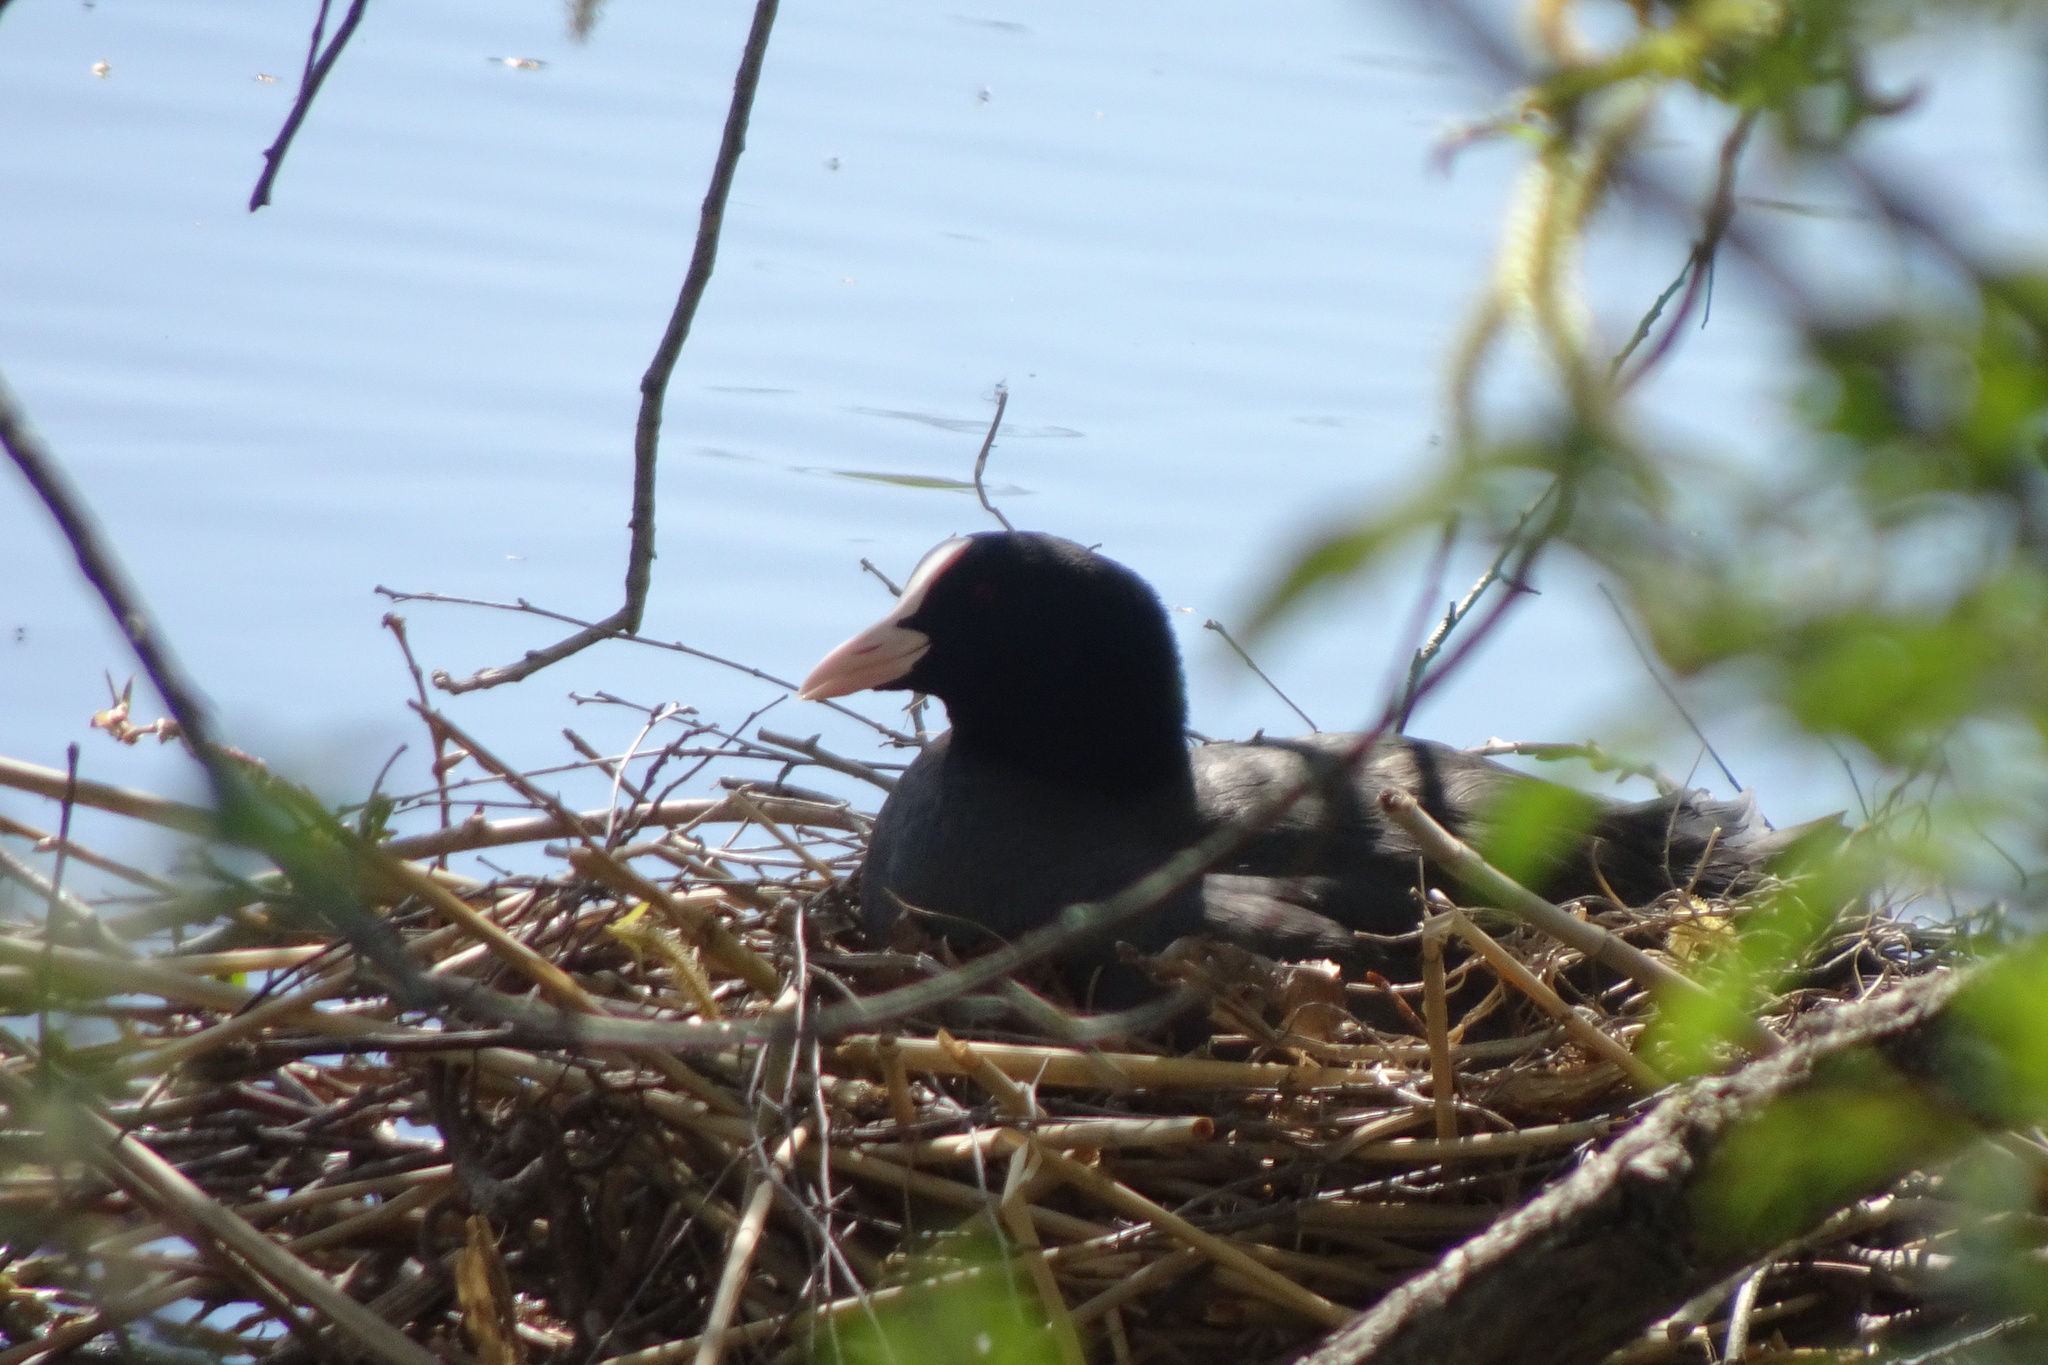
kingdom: Animalia
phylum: Chordata
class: Aves
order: Gruiformes
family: Rallidae
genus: Fulica
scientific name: Fulica atra
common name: Eurasian coot
